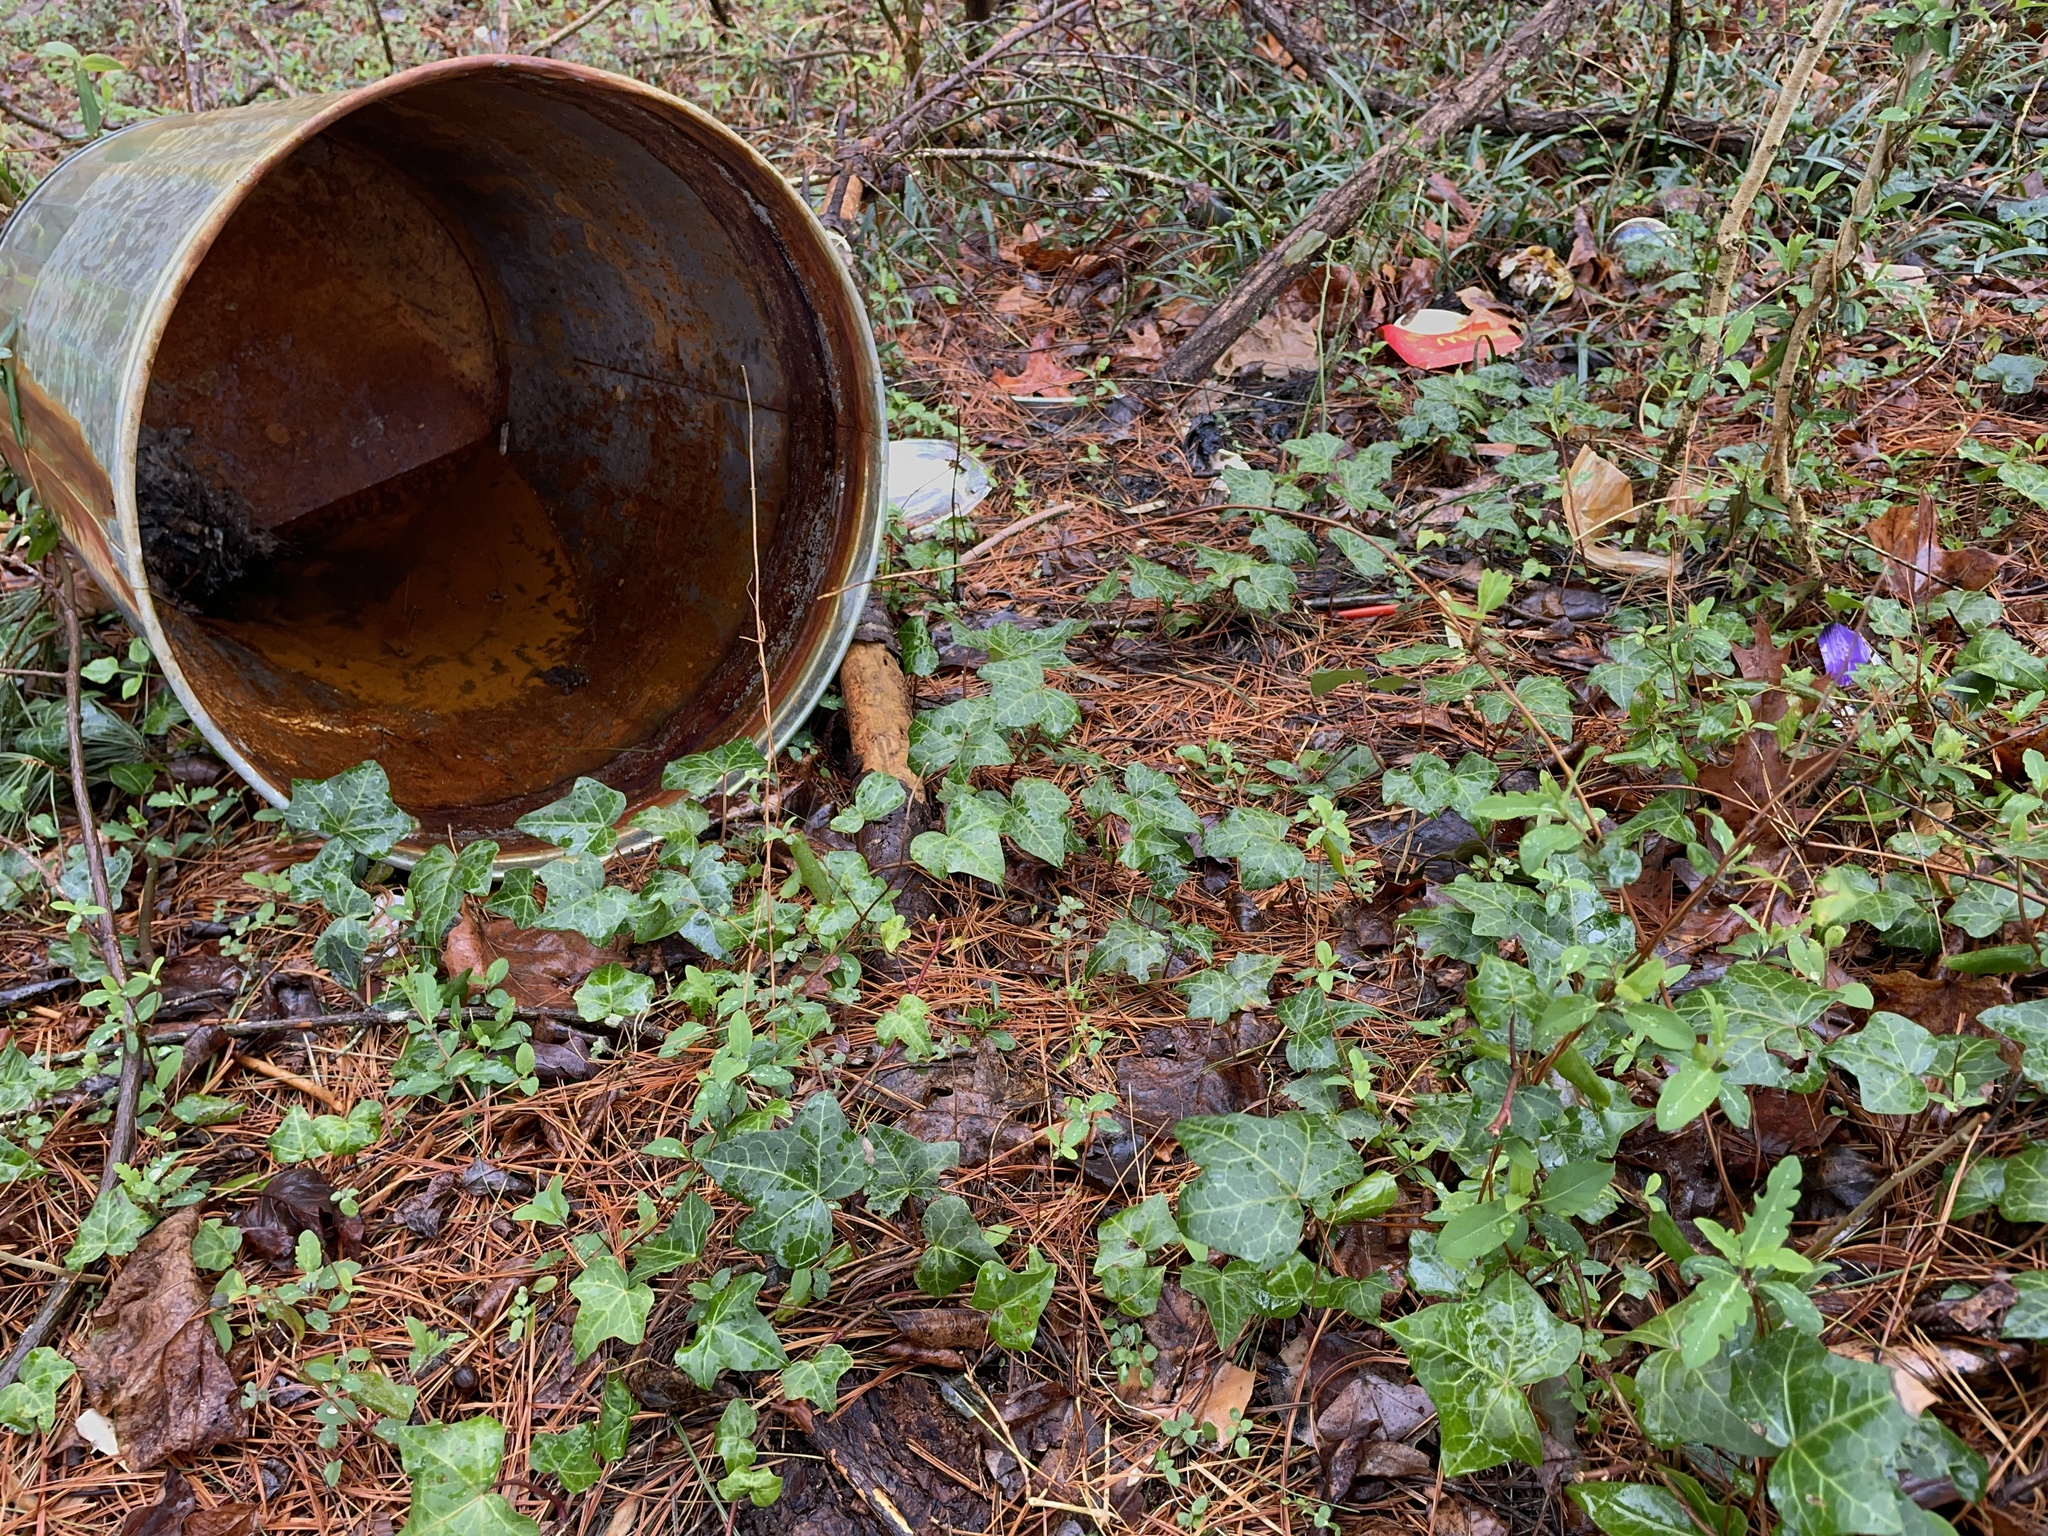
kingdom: Plantae
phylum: Tracheophyta
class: Magnoliopsida
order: Apiales
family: Araliaceae
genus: Hedera
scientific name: Hedera helix
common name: Ivy
